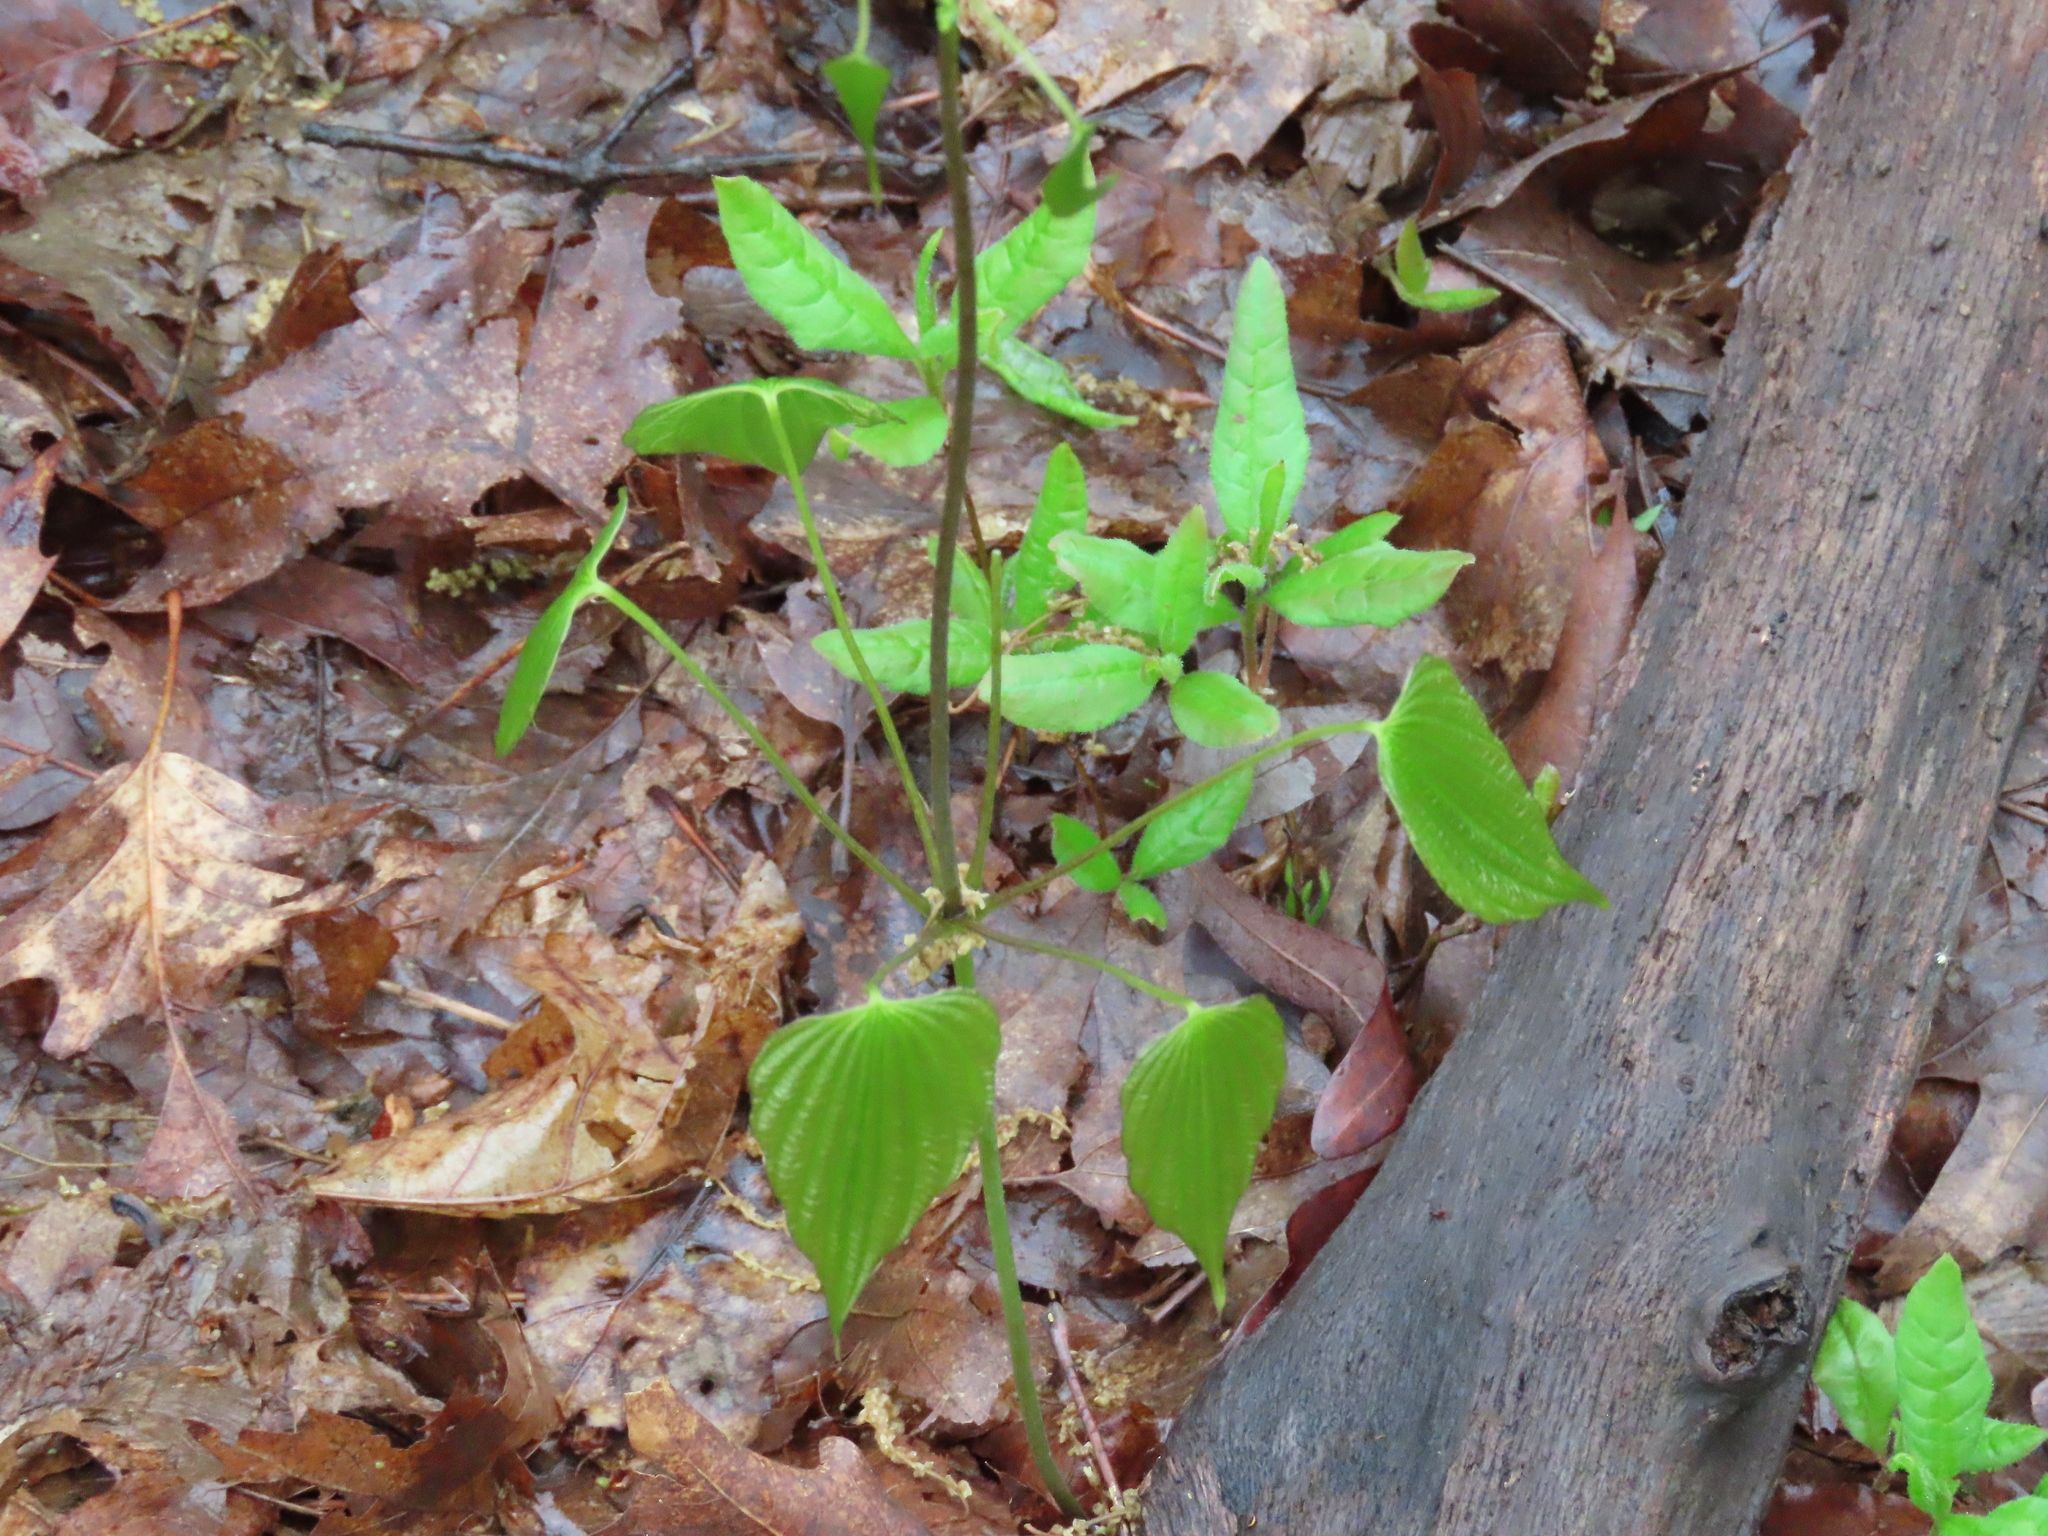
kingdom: Plantae
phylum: Tracheophyta
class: Liliopsida
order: Dioscoreales
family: Dioscoreaceae
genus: Dioscorea
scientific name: Dioscorea villosa
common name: Wild yam
